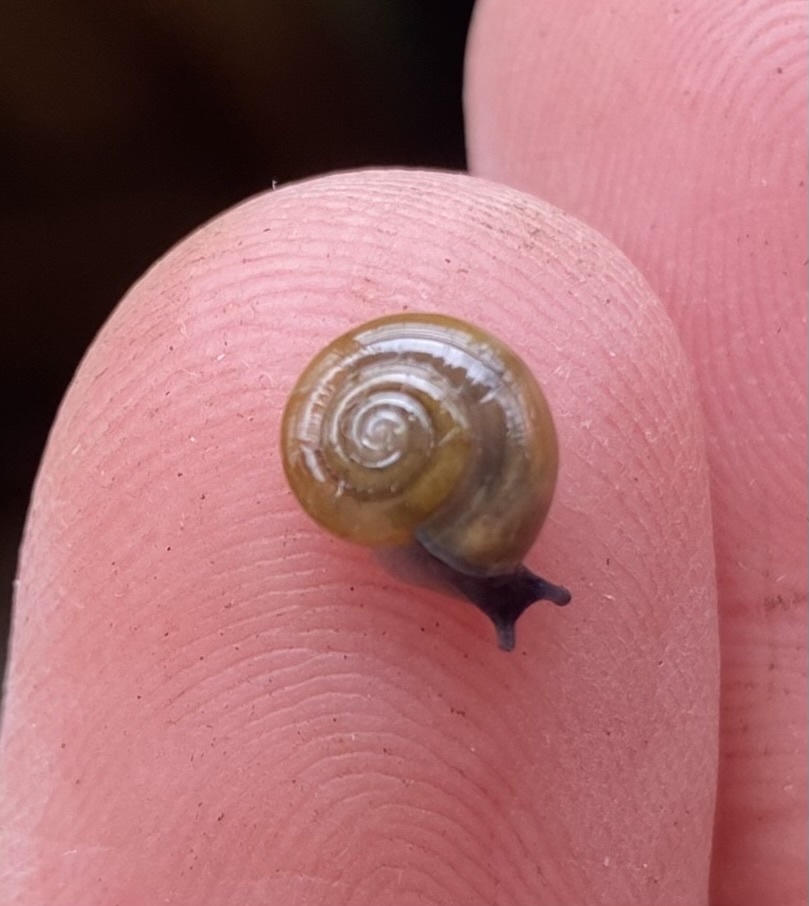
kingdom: Animalia
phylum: Mollusca
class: Gastropoda
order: Stylommatophora
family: Oxychilidae
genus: Oxychilus
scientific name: Oxychilus alliarius
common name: Garlic glass-snail
